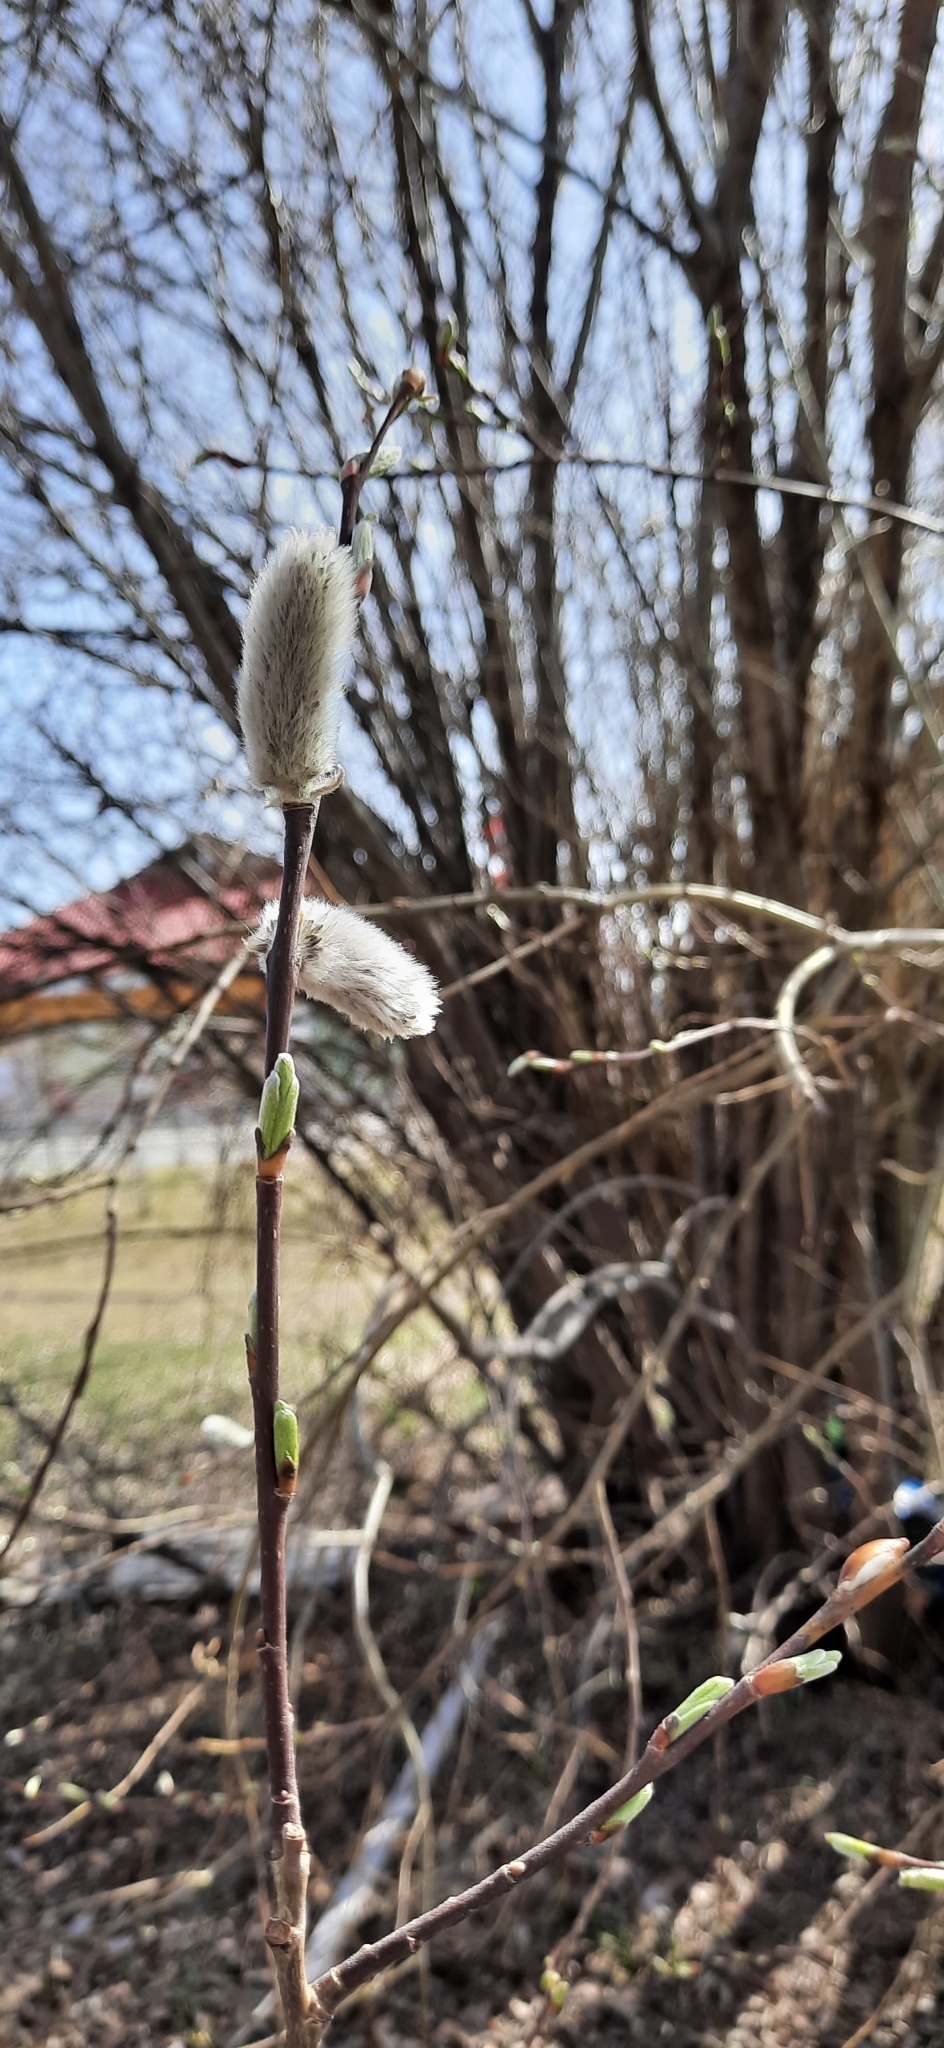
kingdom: Plantae
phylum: Tracheophyta
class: Magnoliopsida
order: Malpighiales
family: Salicaceae
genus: Salix
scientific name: Salix caprea
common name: Goat willow
